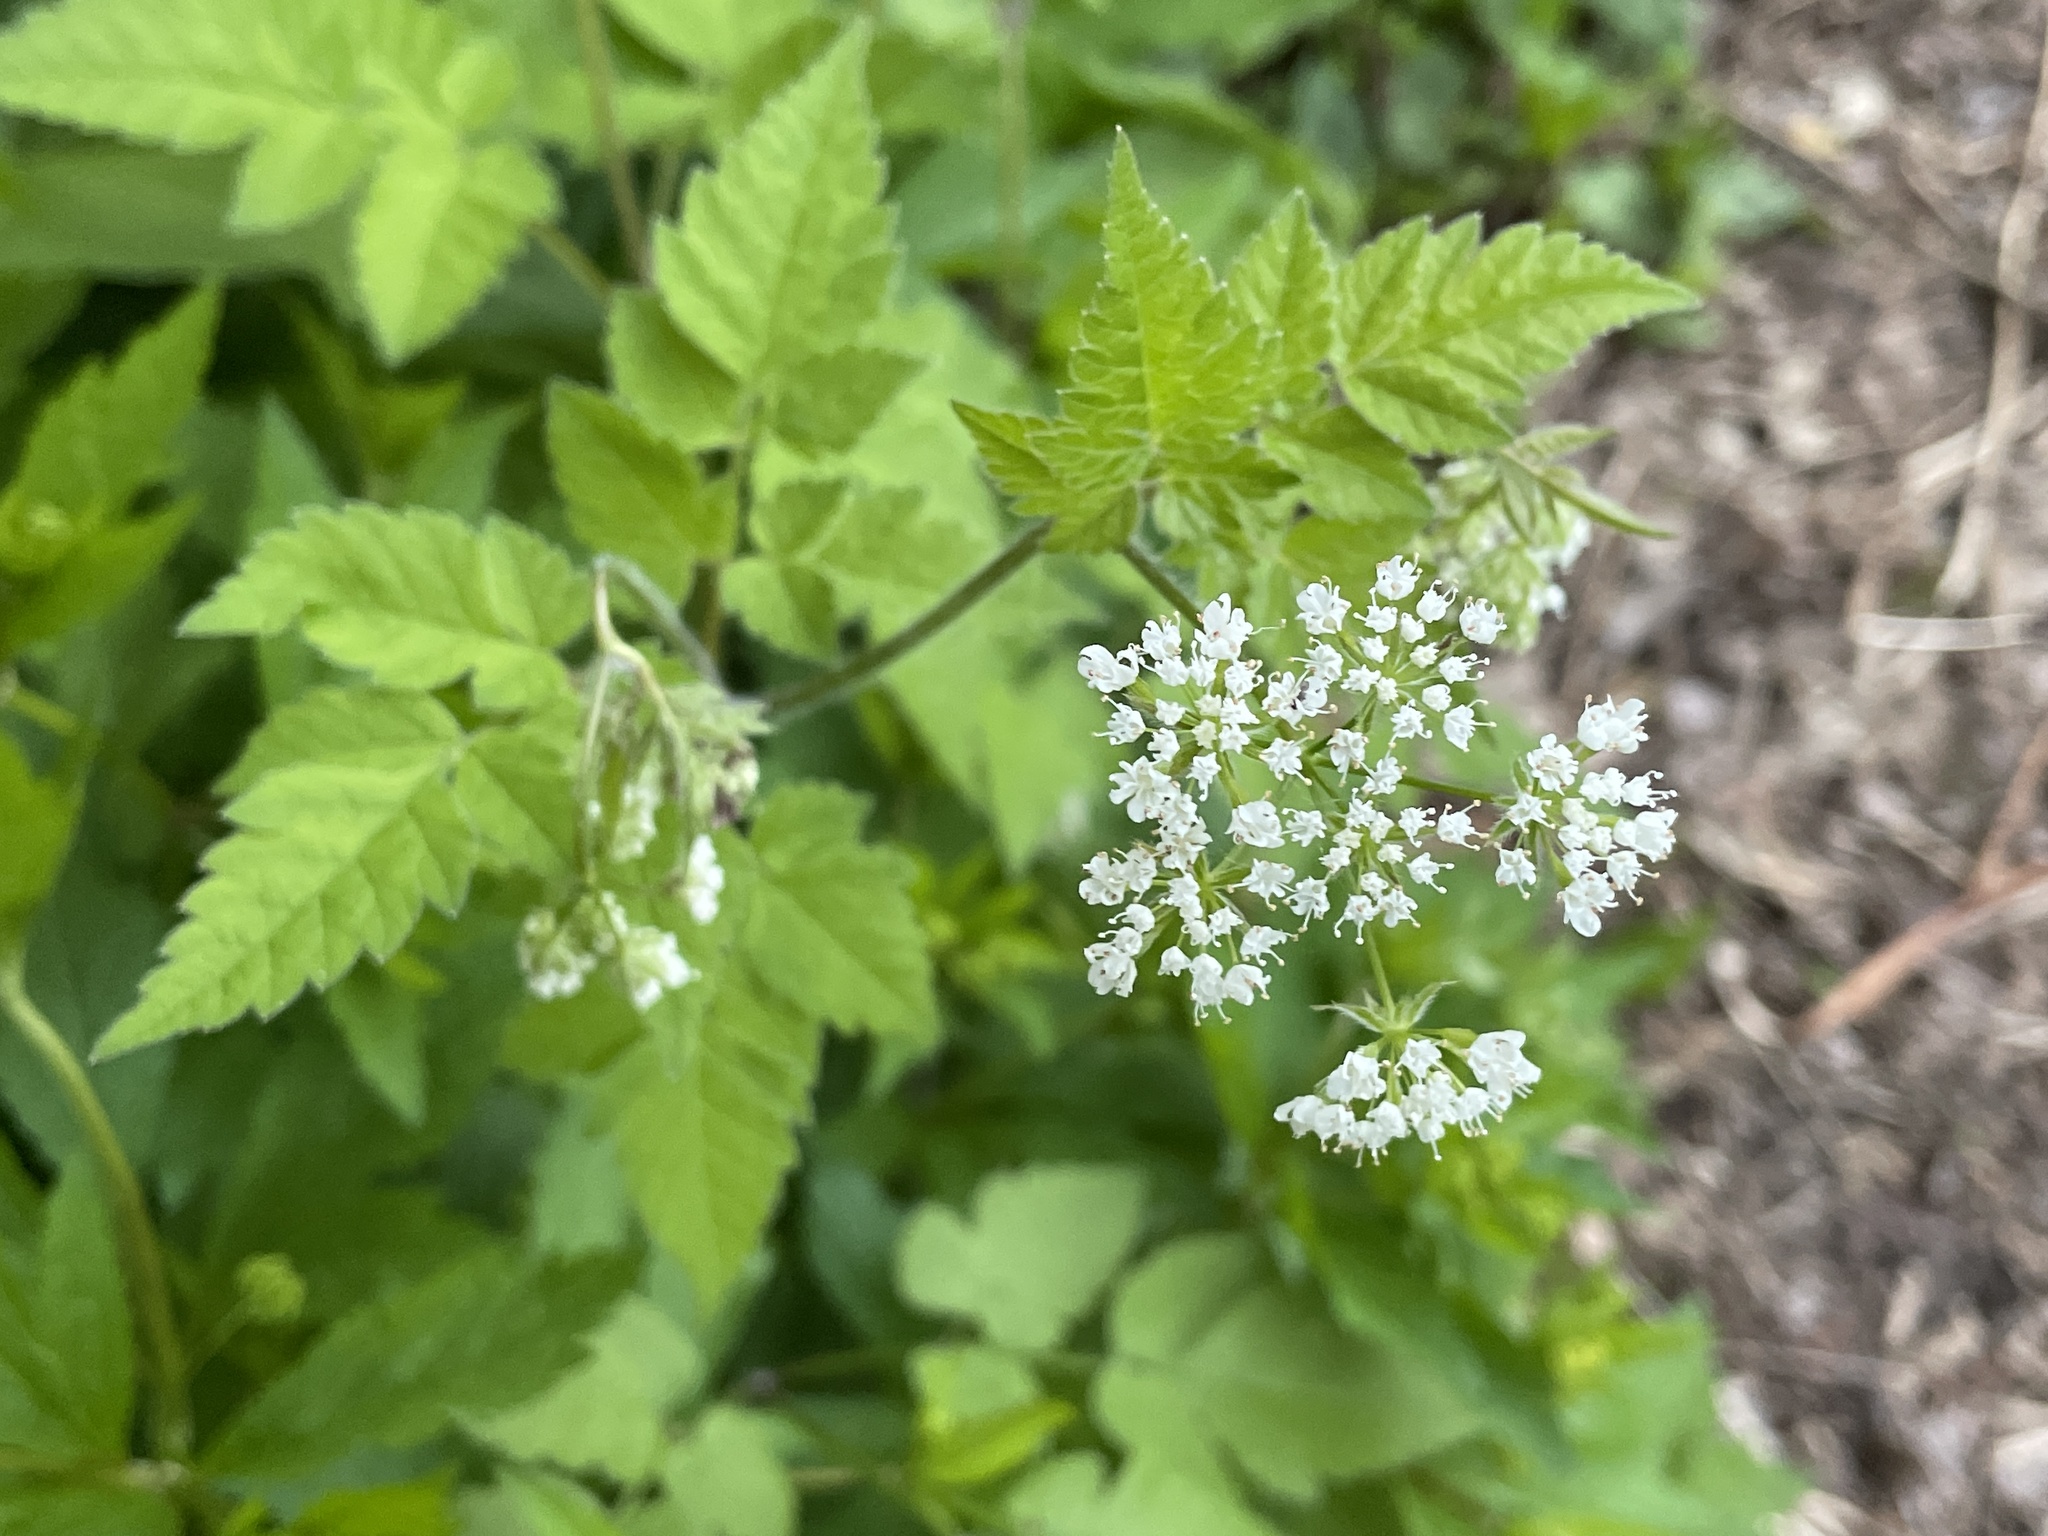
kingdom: Plantae
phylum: Tracheophyta
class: Magnoliopsida
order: Apiales
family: Apiaceae
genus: Osmorhiza
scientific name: Osmorhiza longistylis
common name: Smooth sweet cicely
